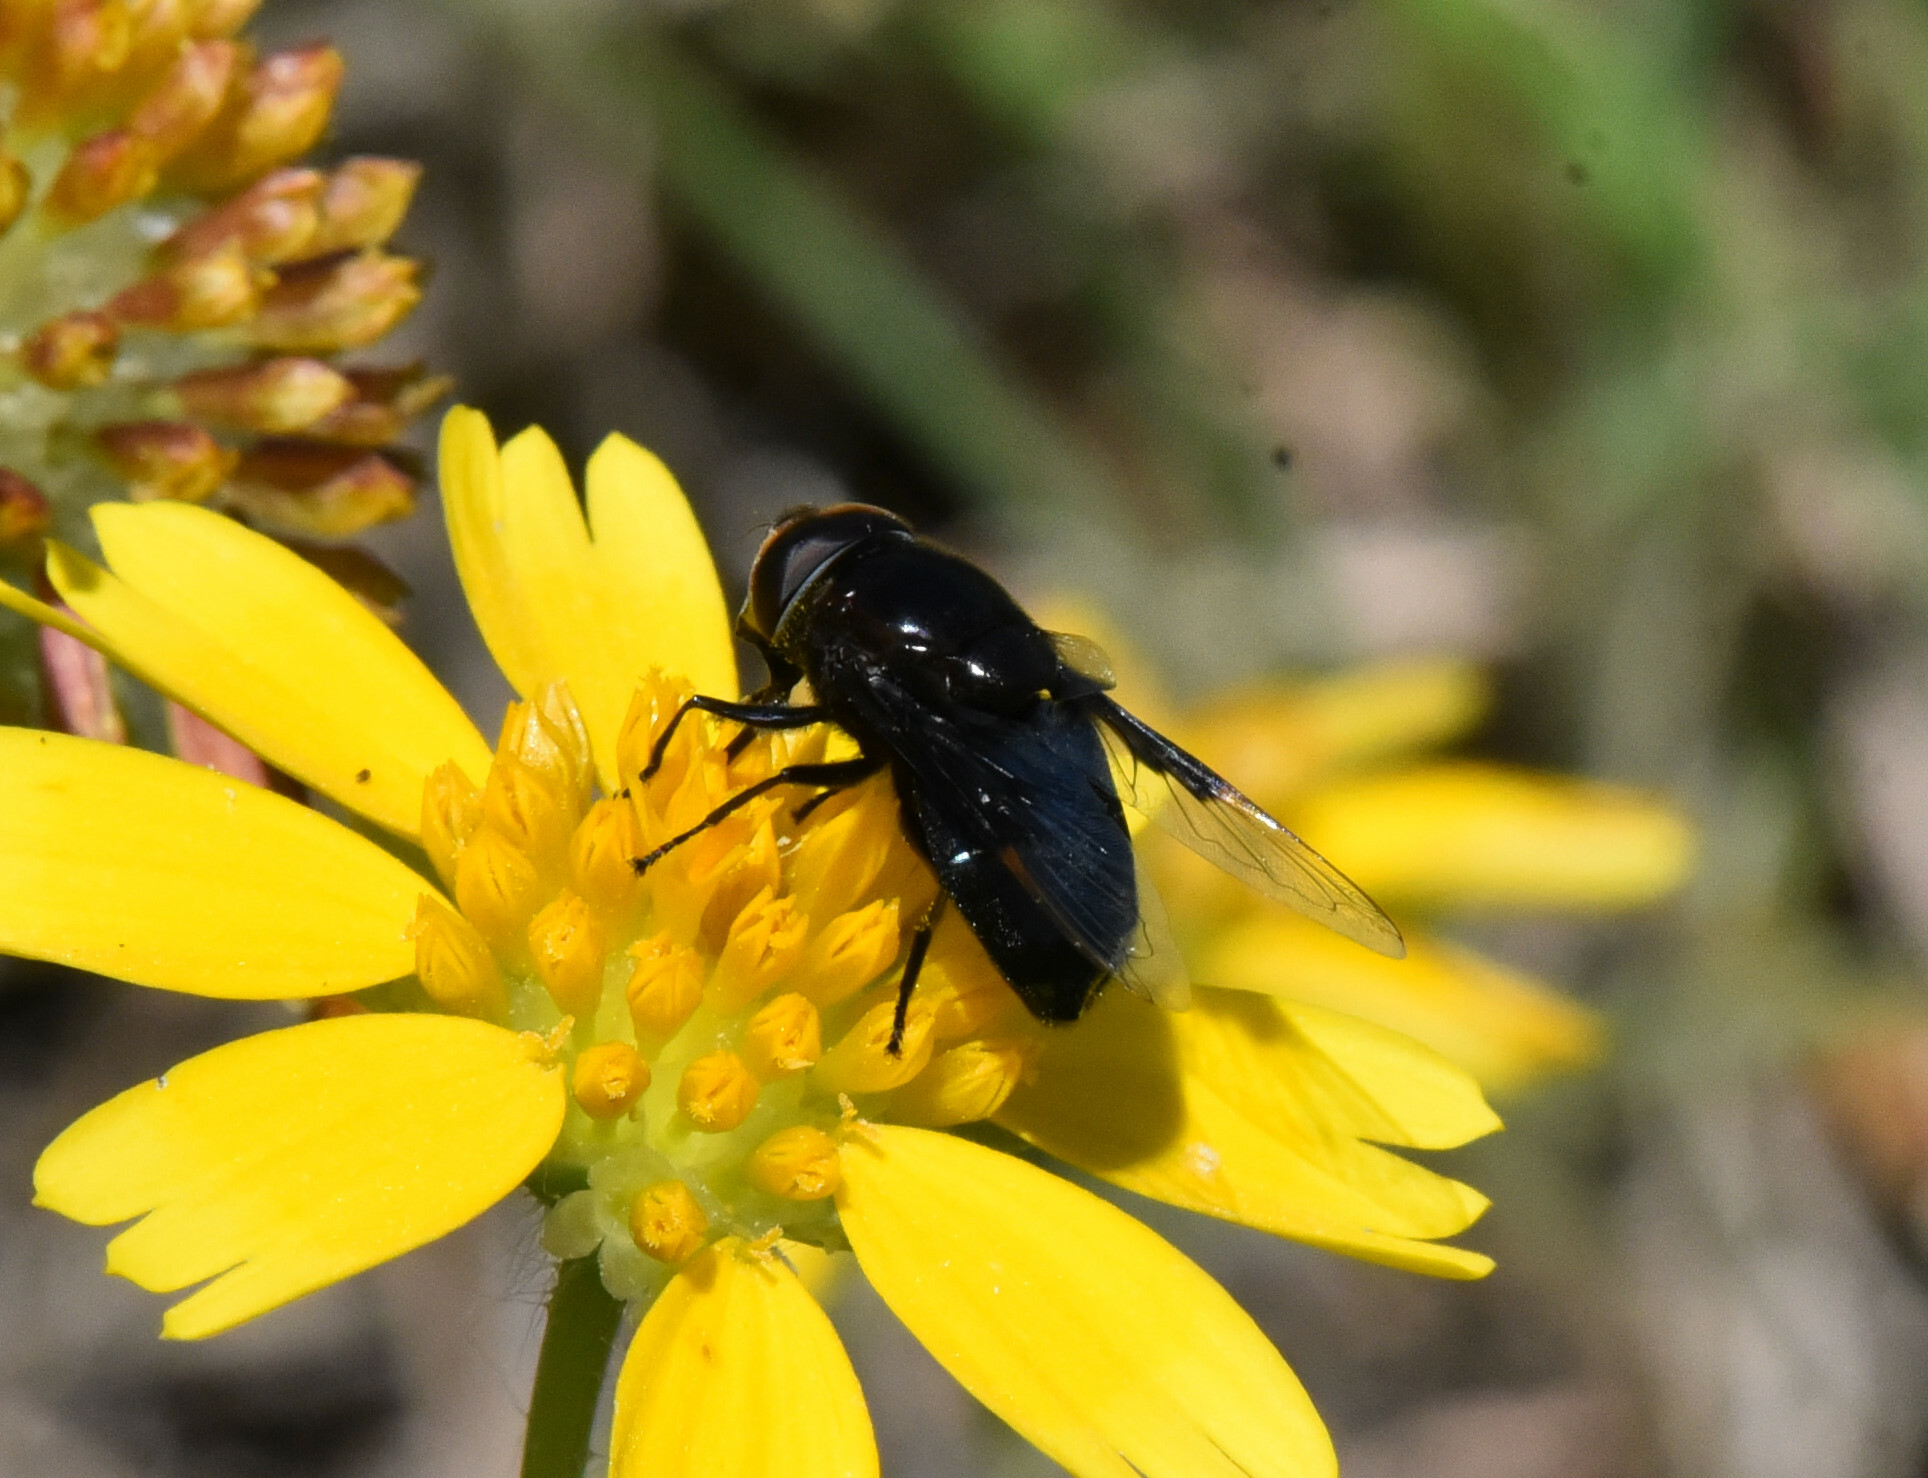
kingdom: Animalia
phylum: Arthropoda
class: Insecta
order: Diptera
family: Syrphidae
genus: Copestylum
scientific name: Copestylum mexicanum
